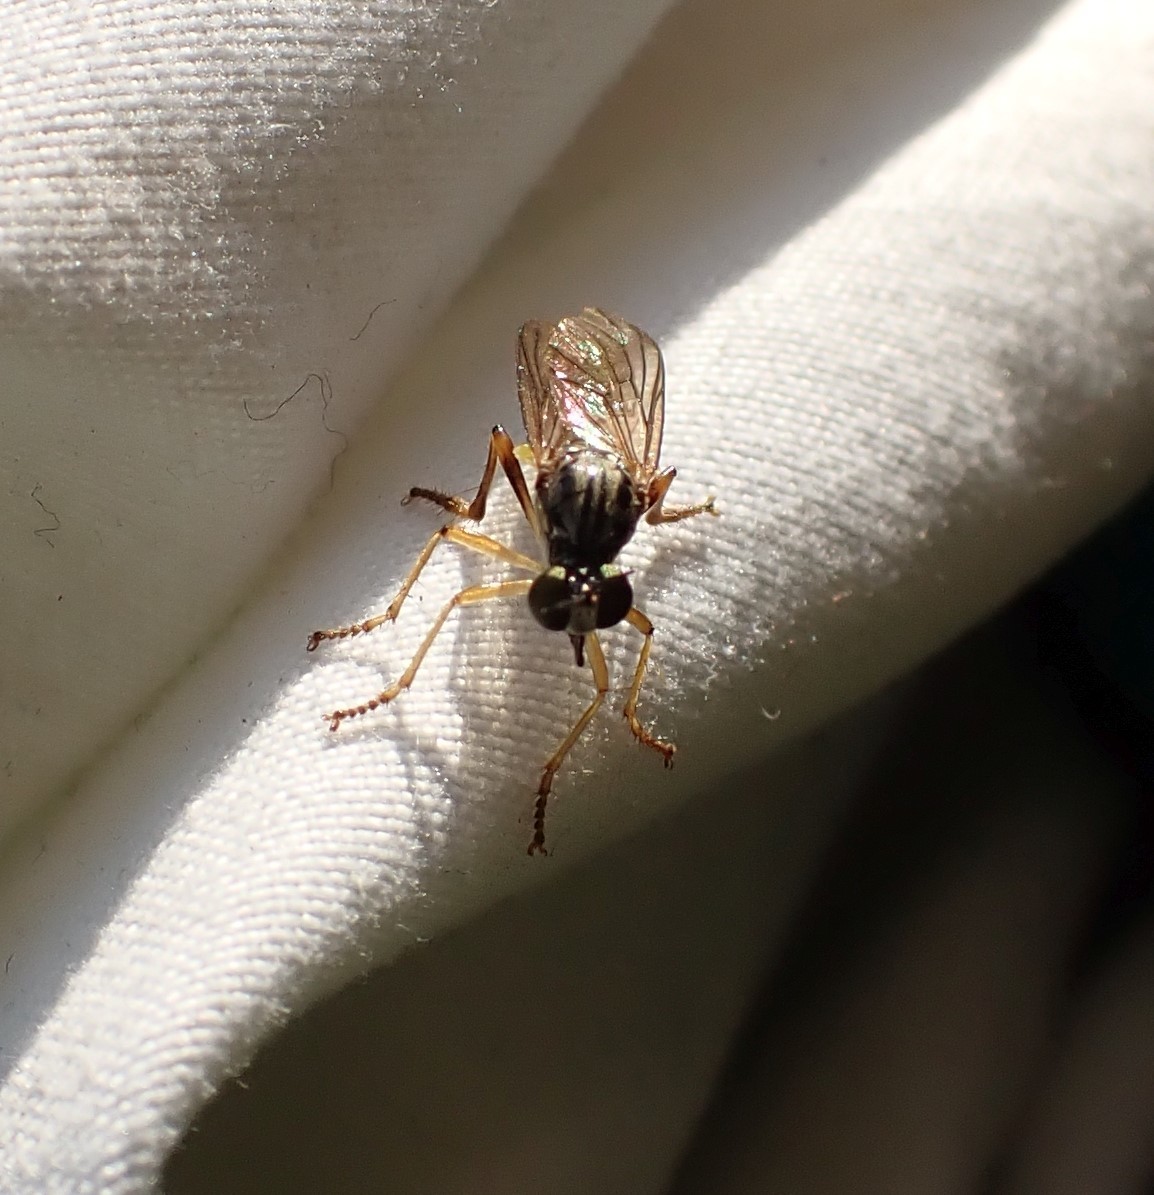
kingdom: Animalia
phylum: Arthropoda
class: Insecta
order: Diptera
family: Asilidae
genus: Dioctria
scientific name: Dioctria linearis
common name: Small yellow-legged robberfly
